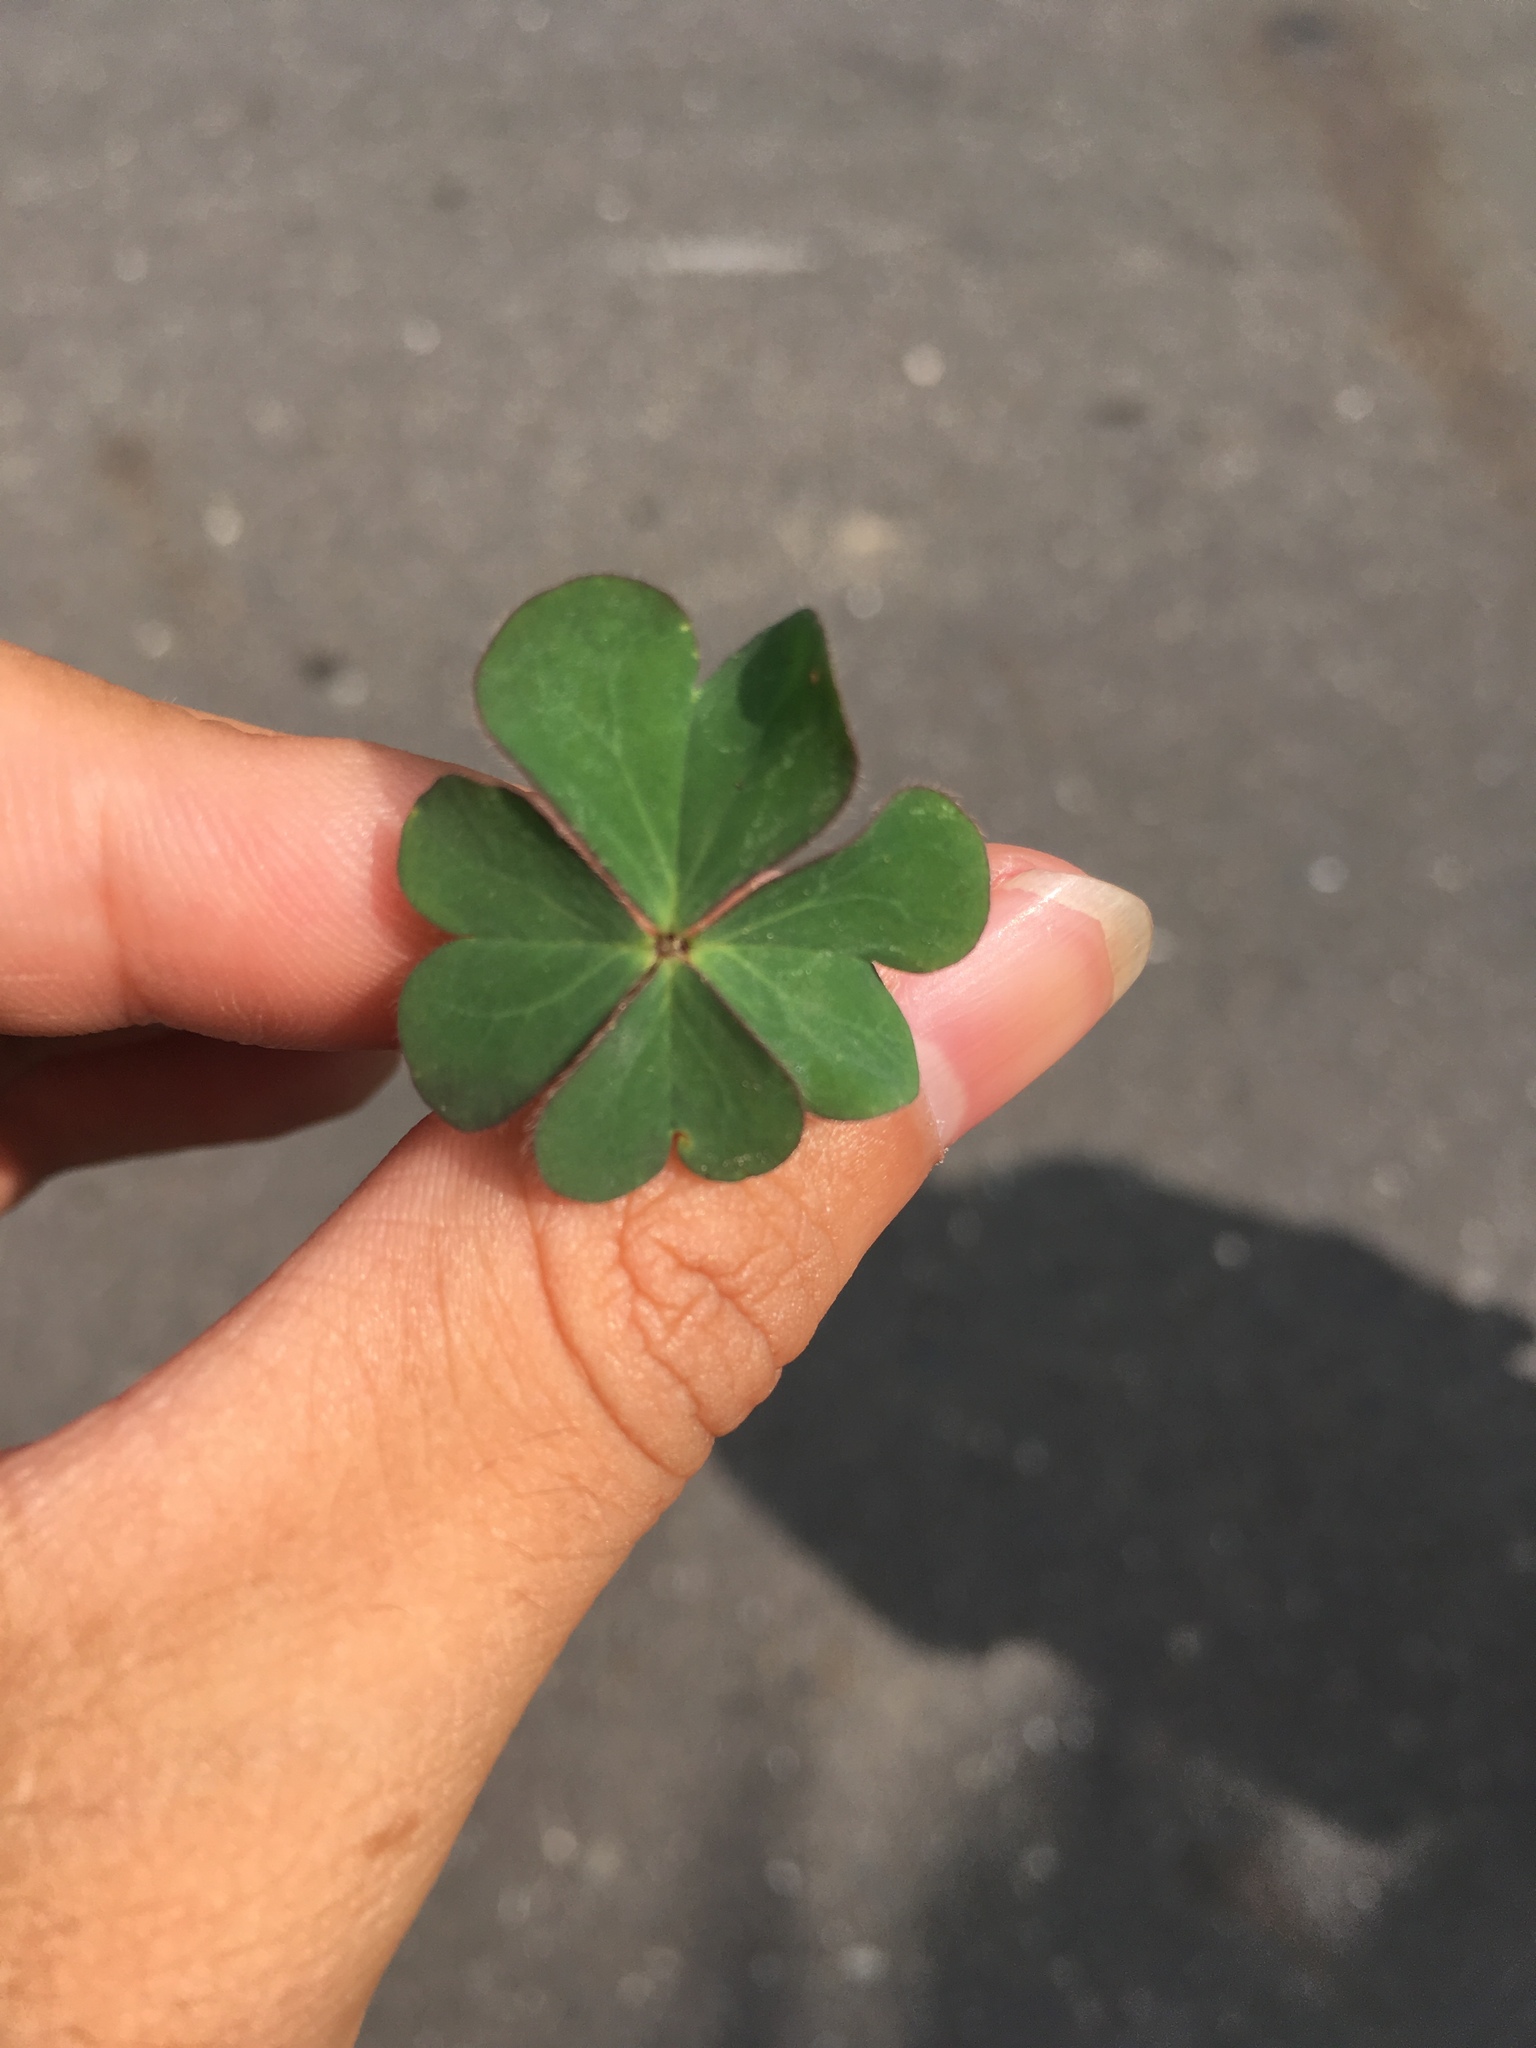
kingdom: Plantae
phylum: Tracheophyta
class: Magnoliopsida
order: Oxalidales
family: Oxalidaceae
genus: Oxalis
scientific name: Oxalis corniculata
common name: Procumbent yellow-sorrel
